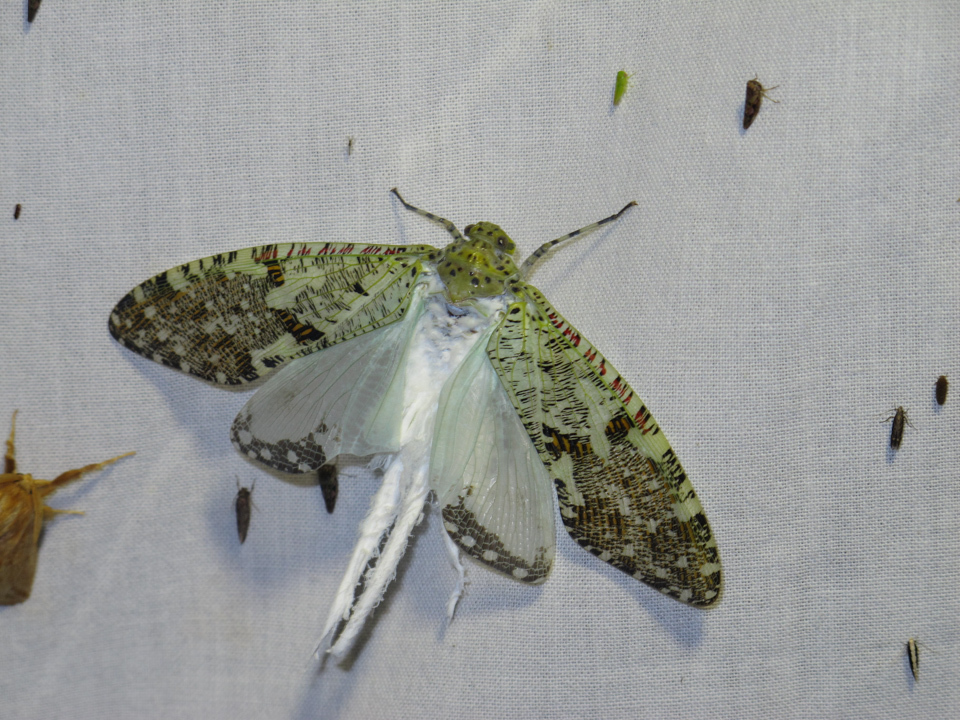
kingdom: Animalia
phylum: Arthropoda
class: Insecta
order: Hemiptera
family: Fulgoridae
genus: Phenax
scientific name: Phenax variegata
